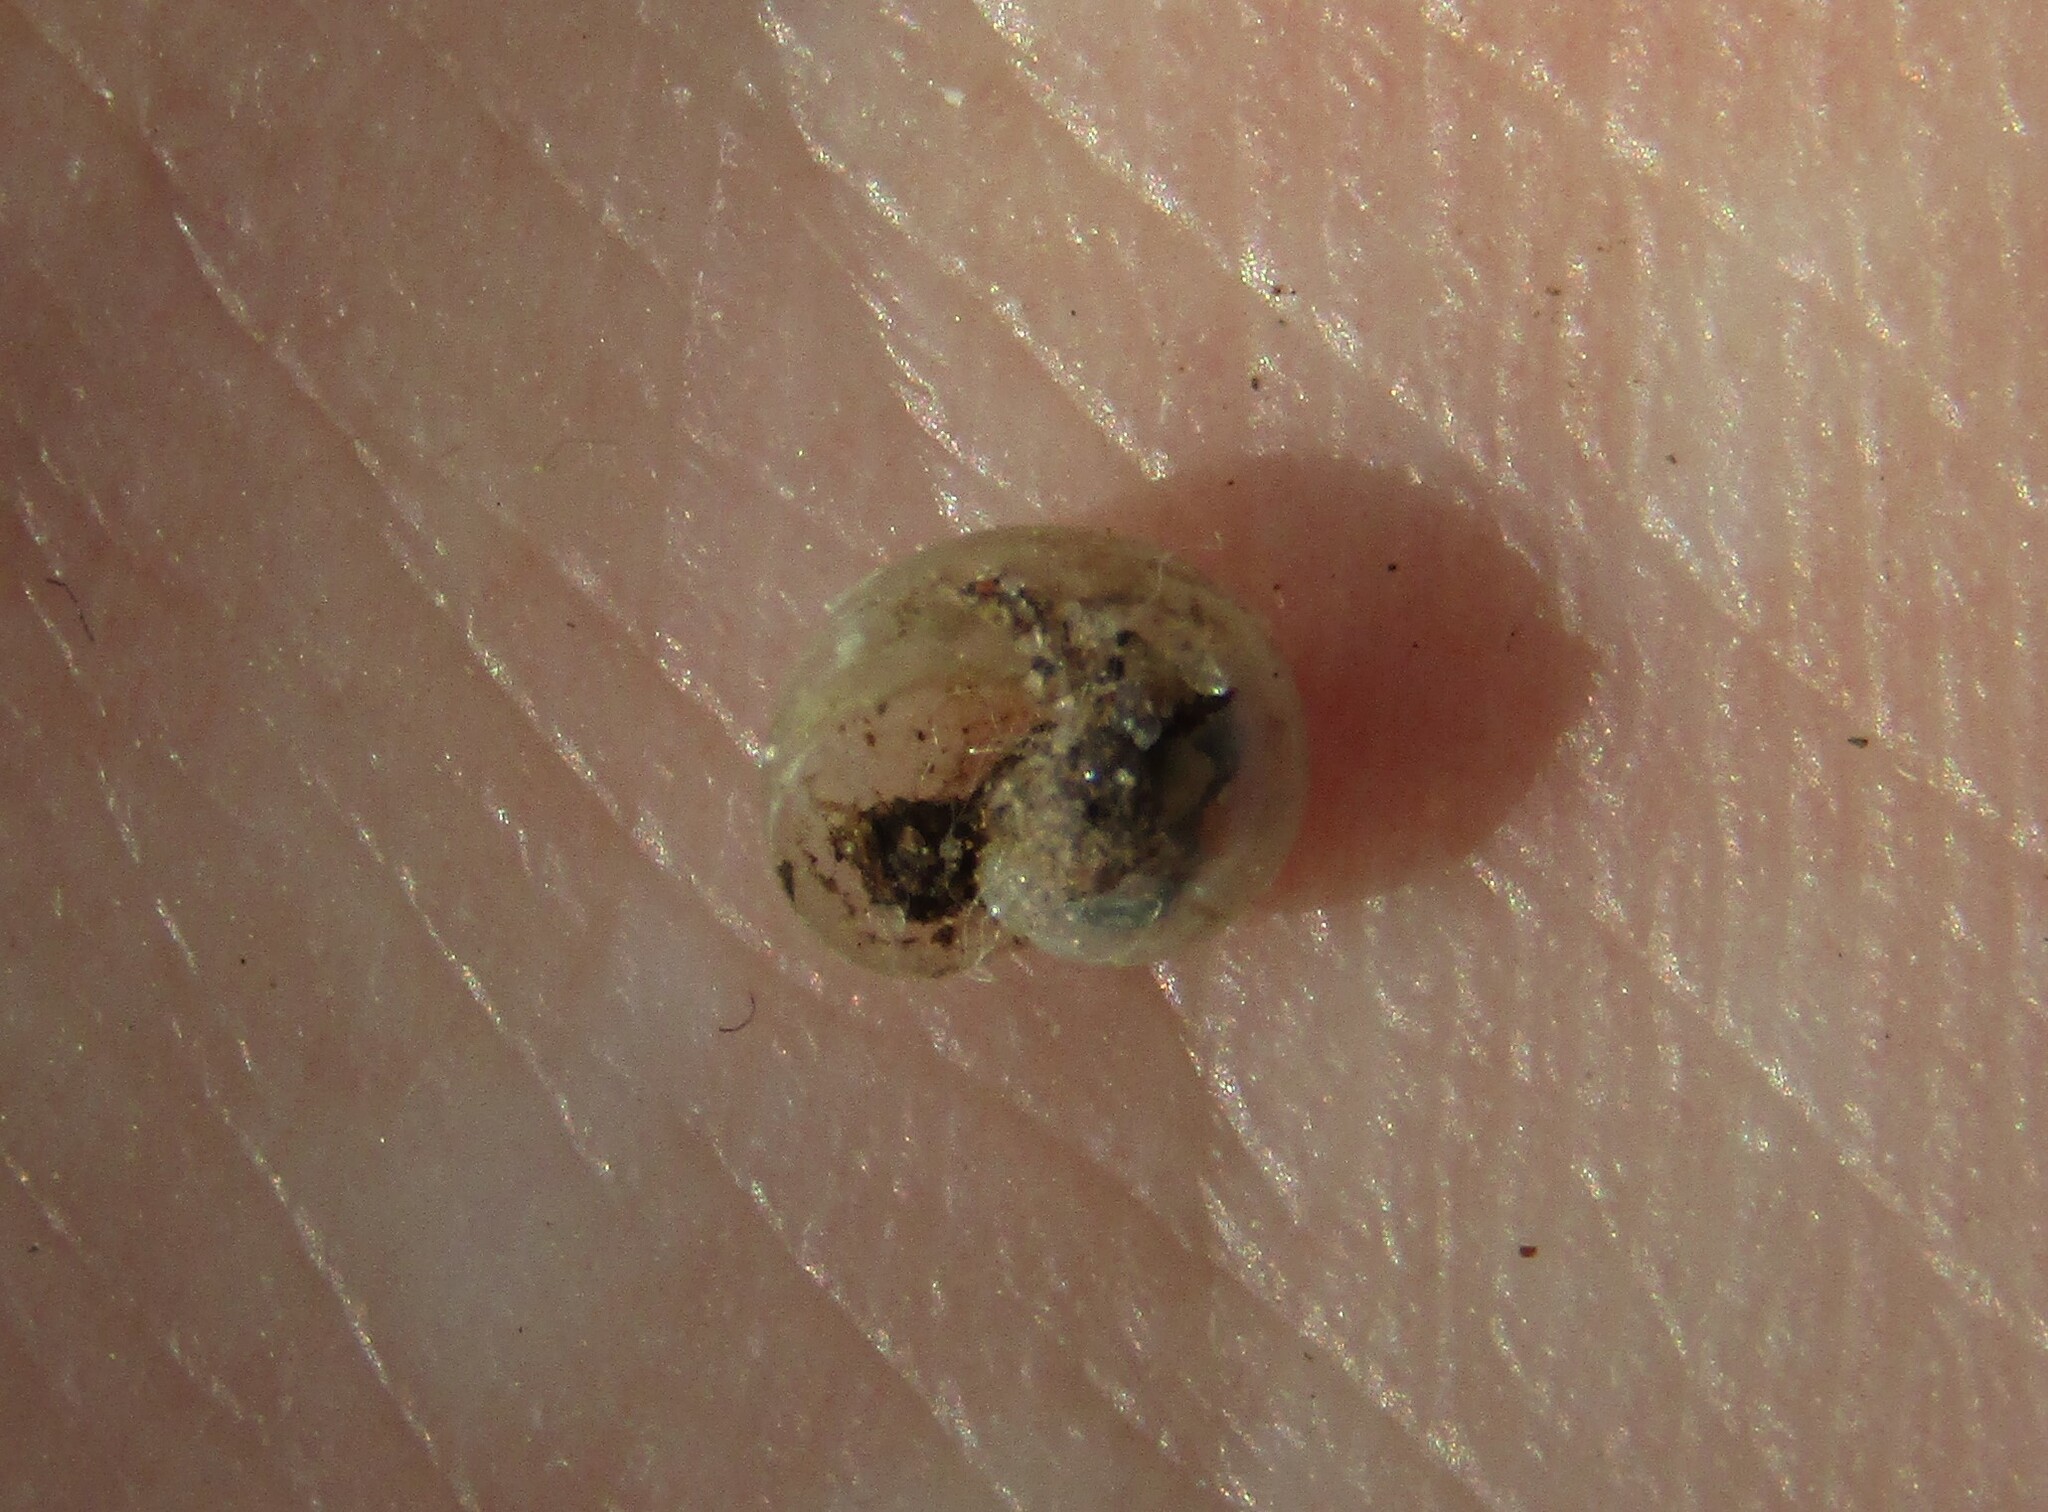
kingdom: Animalia
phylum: Mollusca
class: Gastropoda
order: Stylommatophora
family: Vitrinidae
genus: Vitrina
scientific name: Vitrina pellucida
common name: Pellucid glass snail
